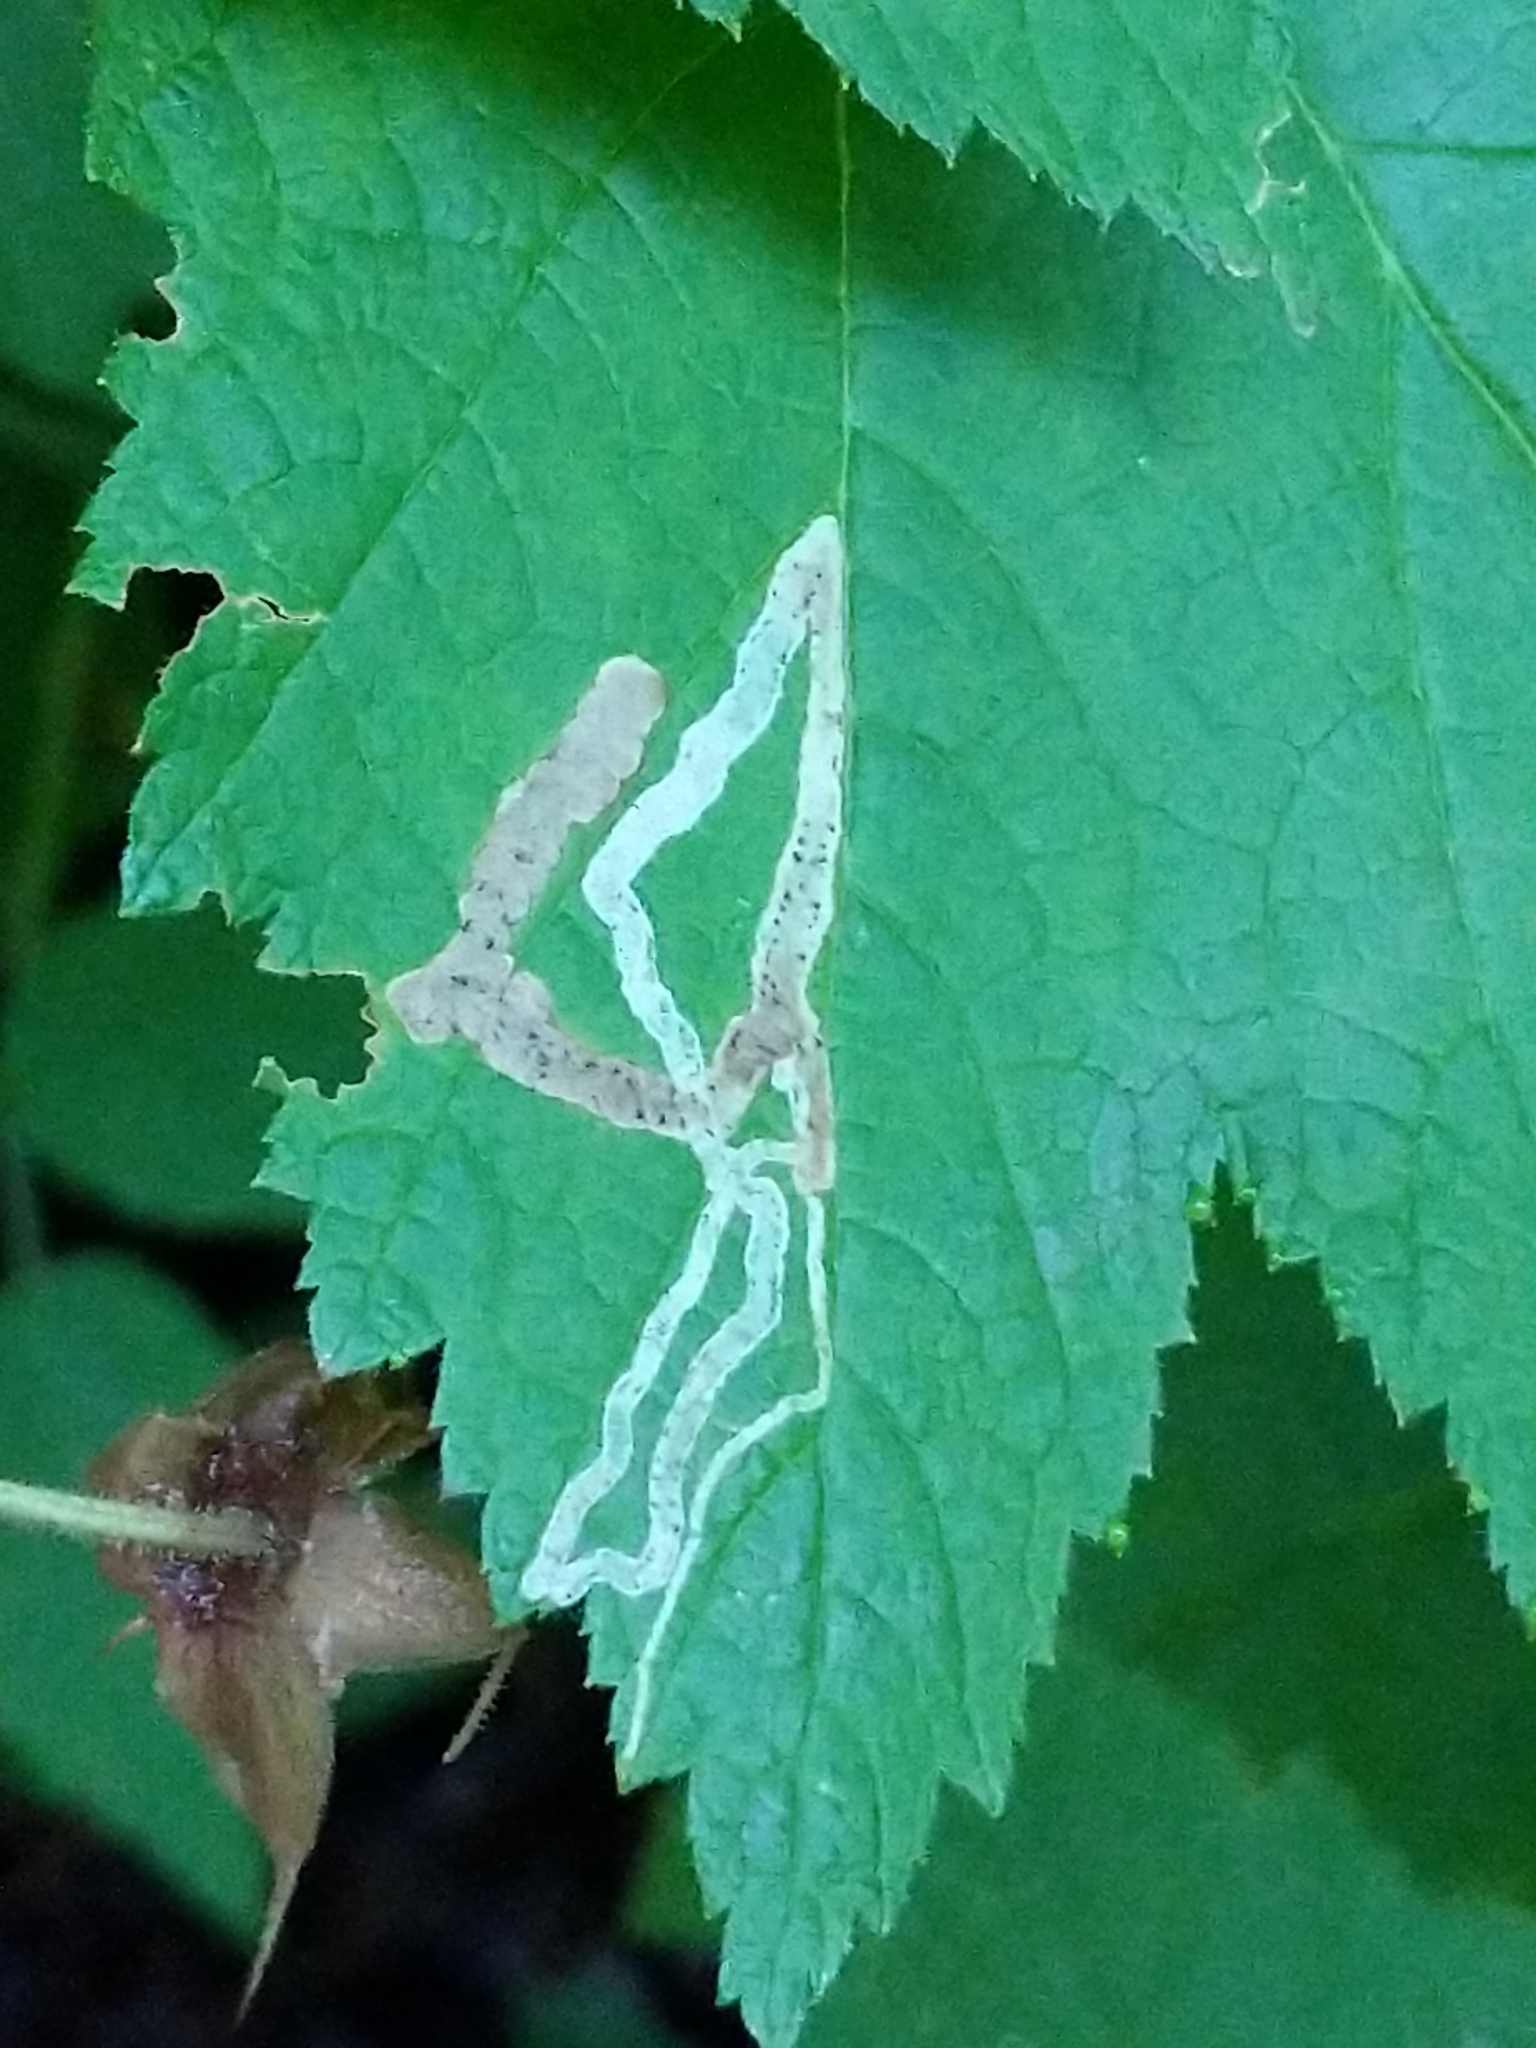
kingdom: Animalia
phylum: Arthropoda
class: Insecta
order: Diptera
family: Agromyzidae
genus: Agromyza
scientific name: Agromyza vockerothi
